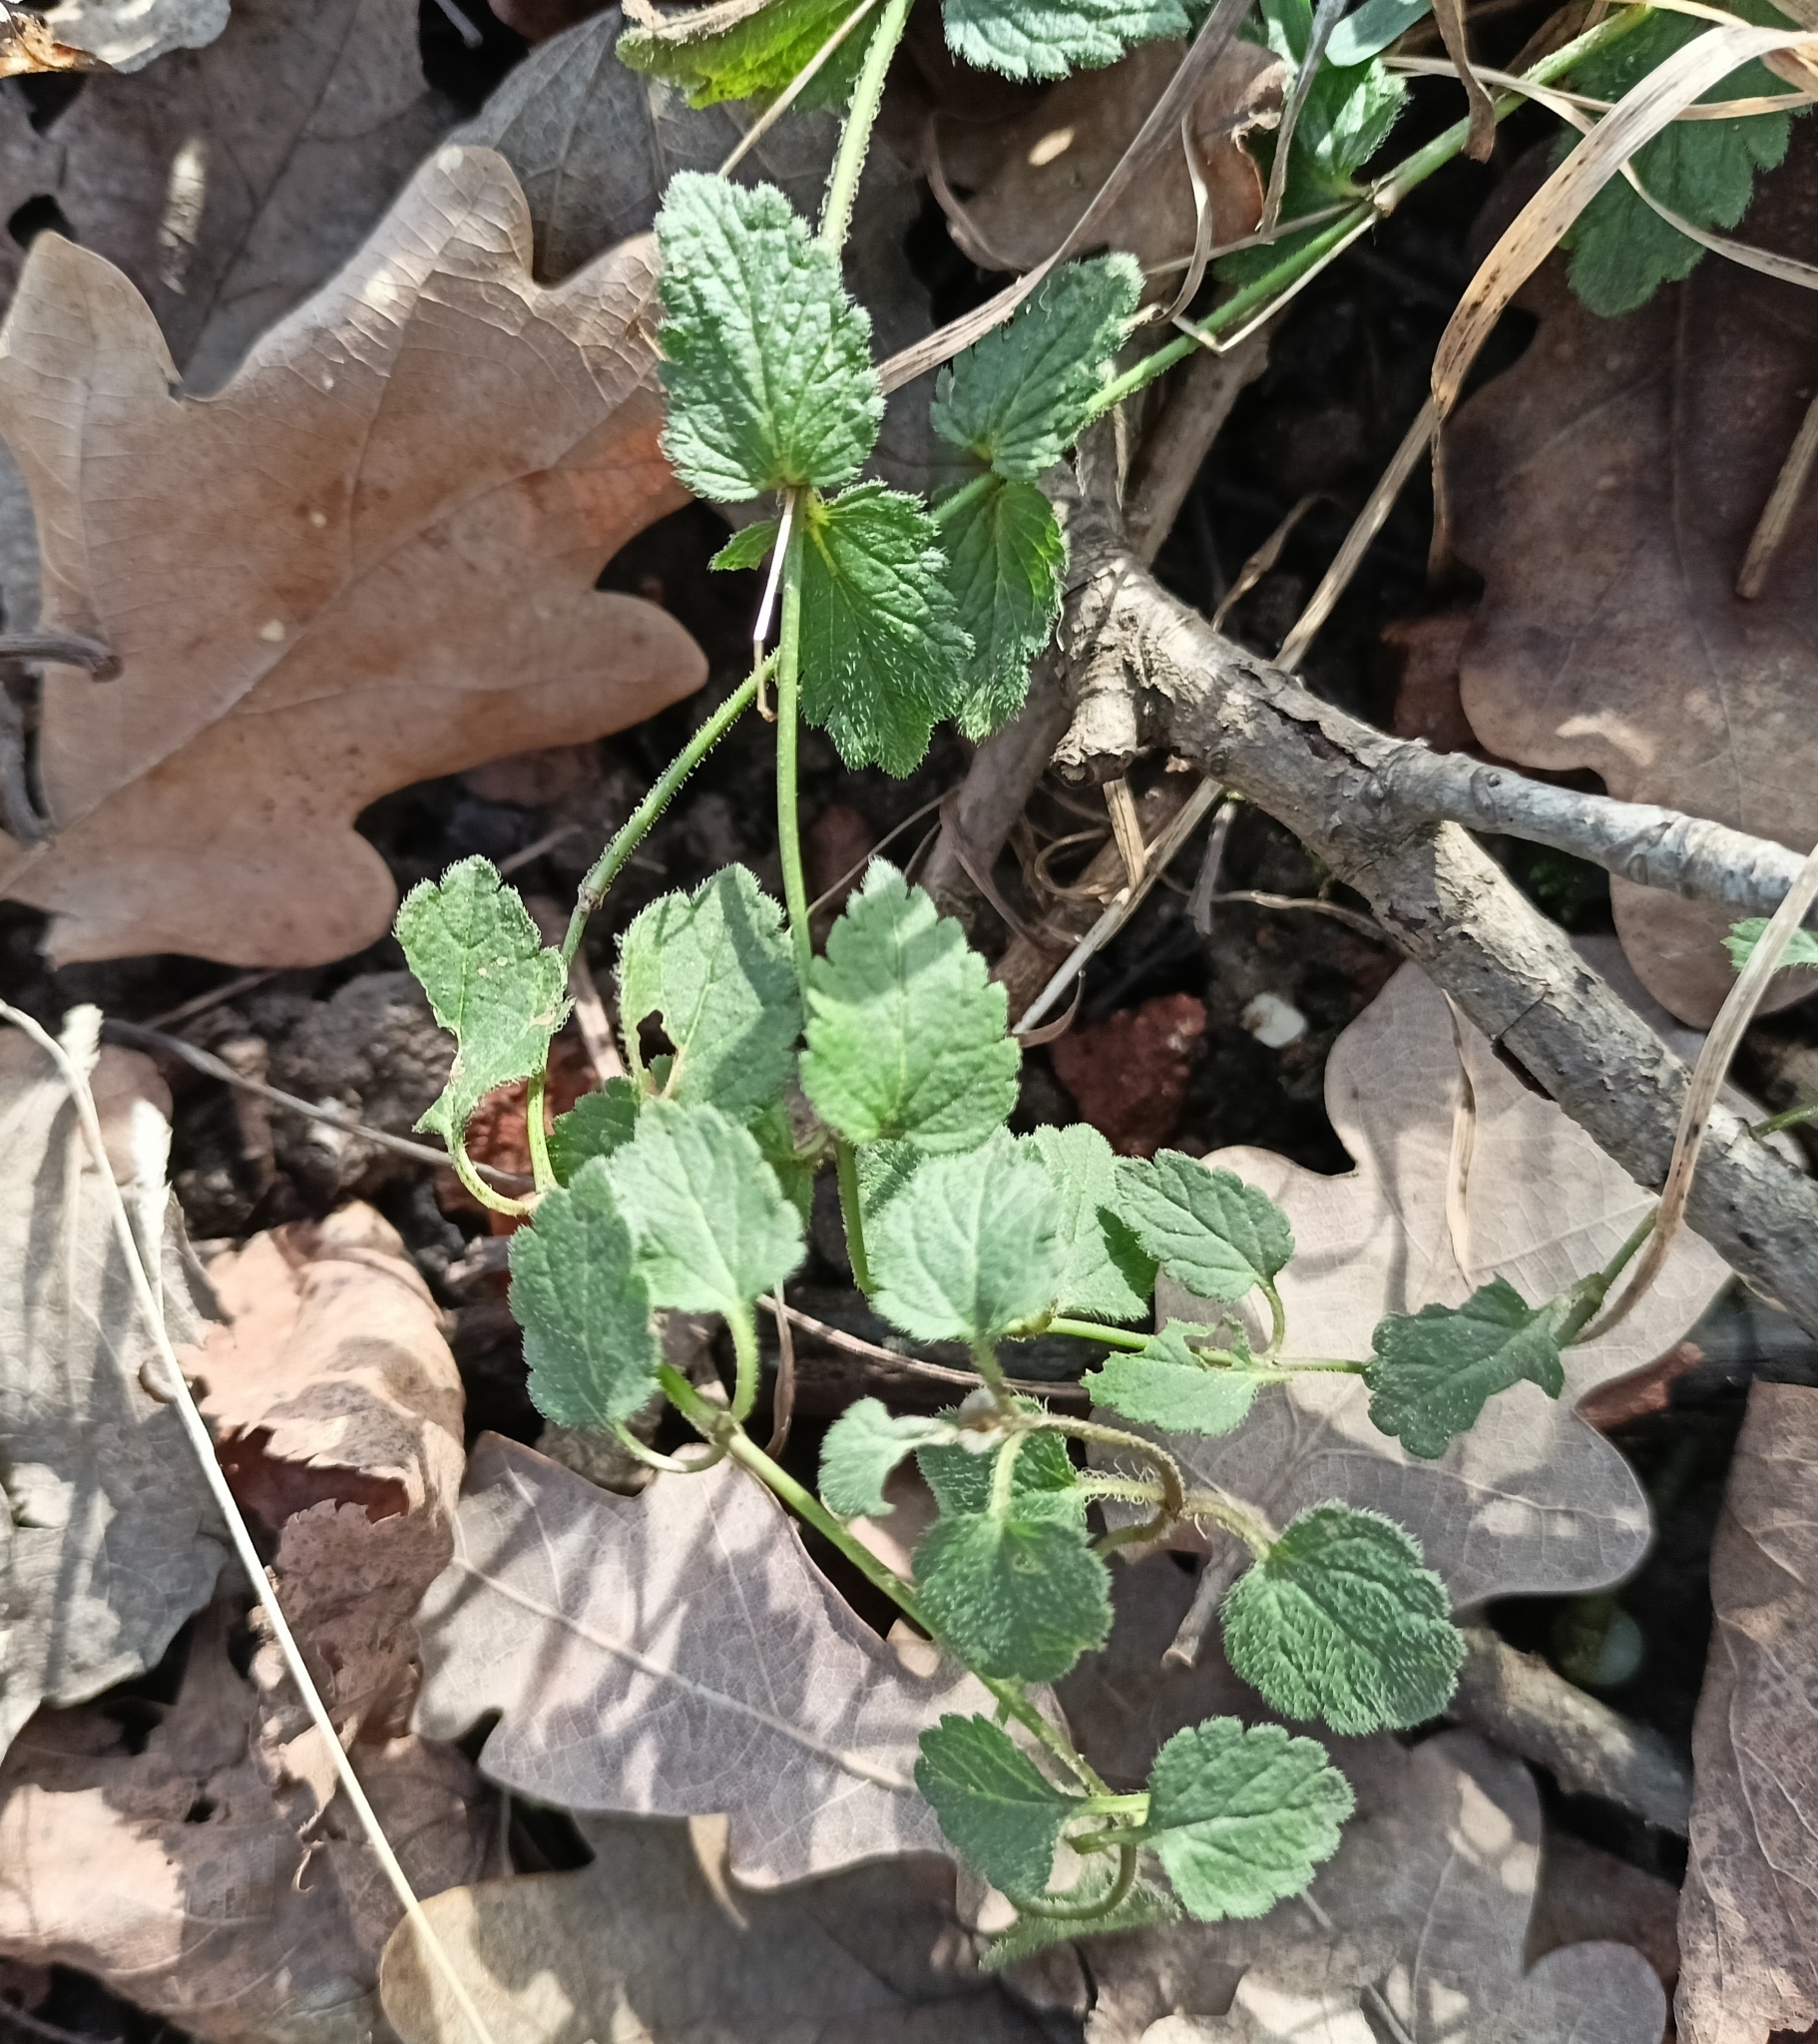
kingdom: Plantae
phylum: Tracheophyta
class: Magnoliopsida
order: Lamiales
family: Plantaginaceae
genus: Veronica
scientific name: Veronica chamaedrys
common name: Germander speedwell
